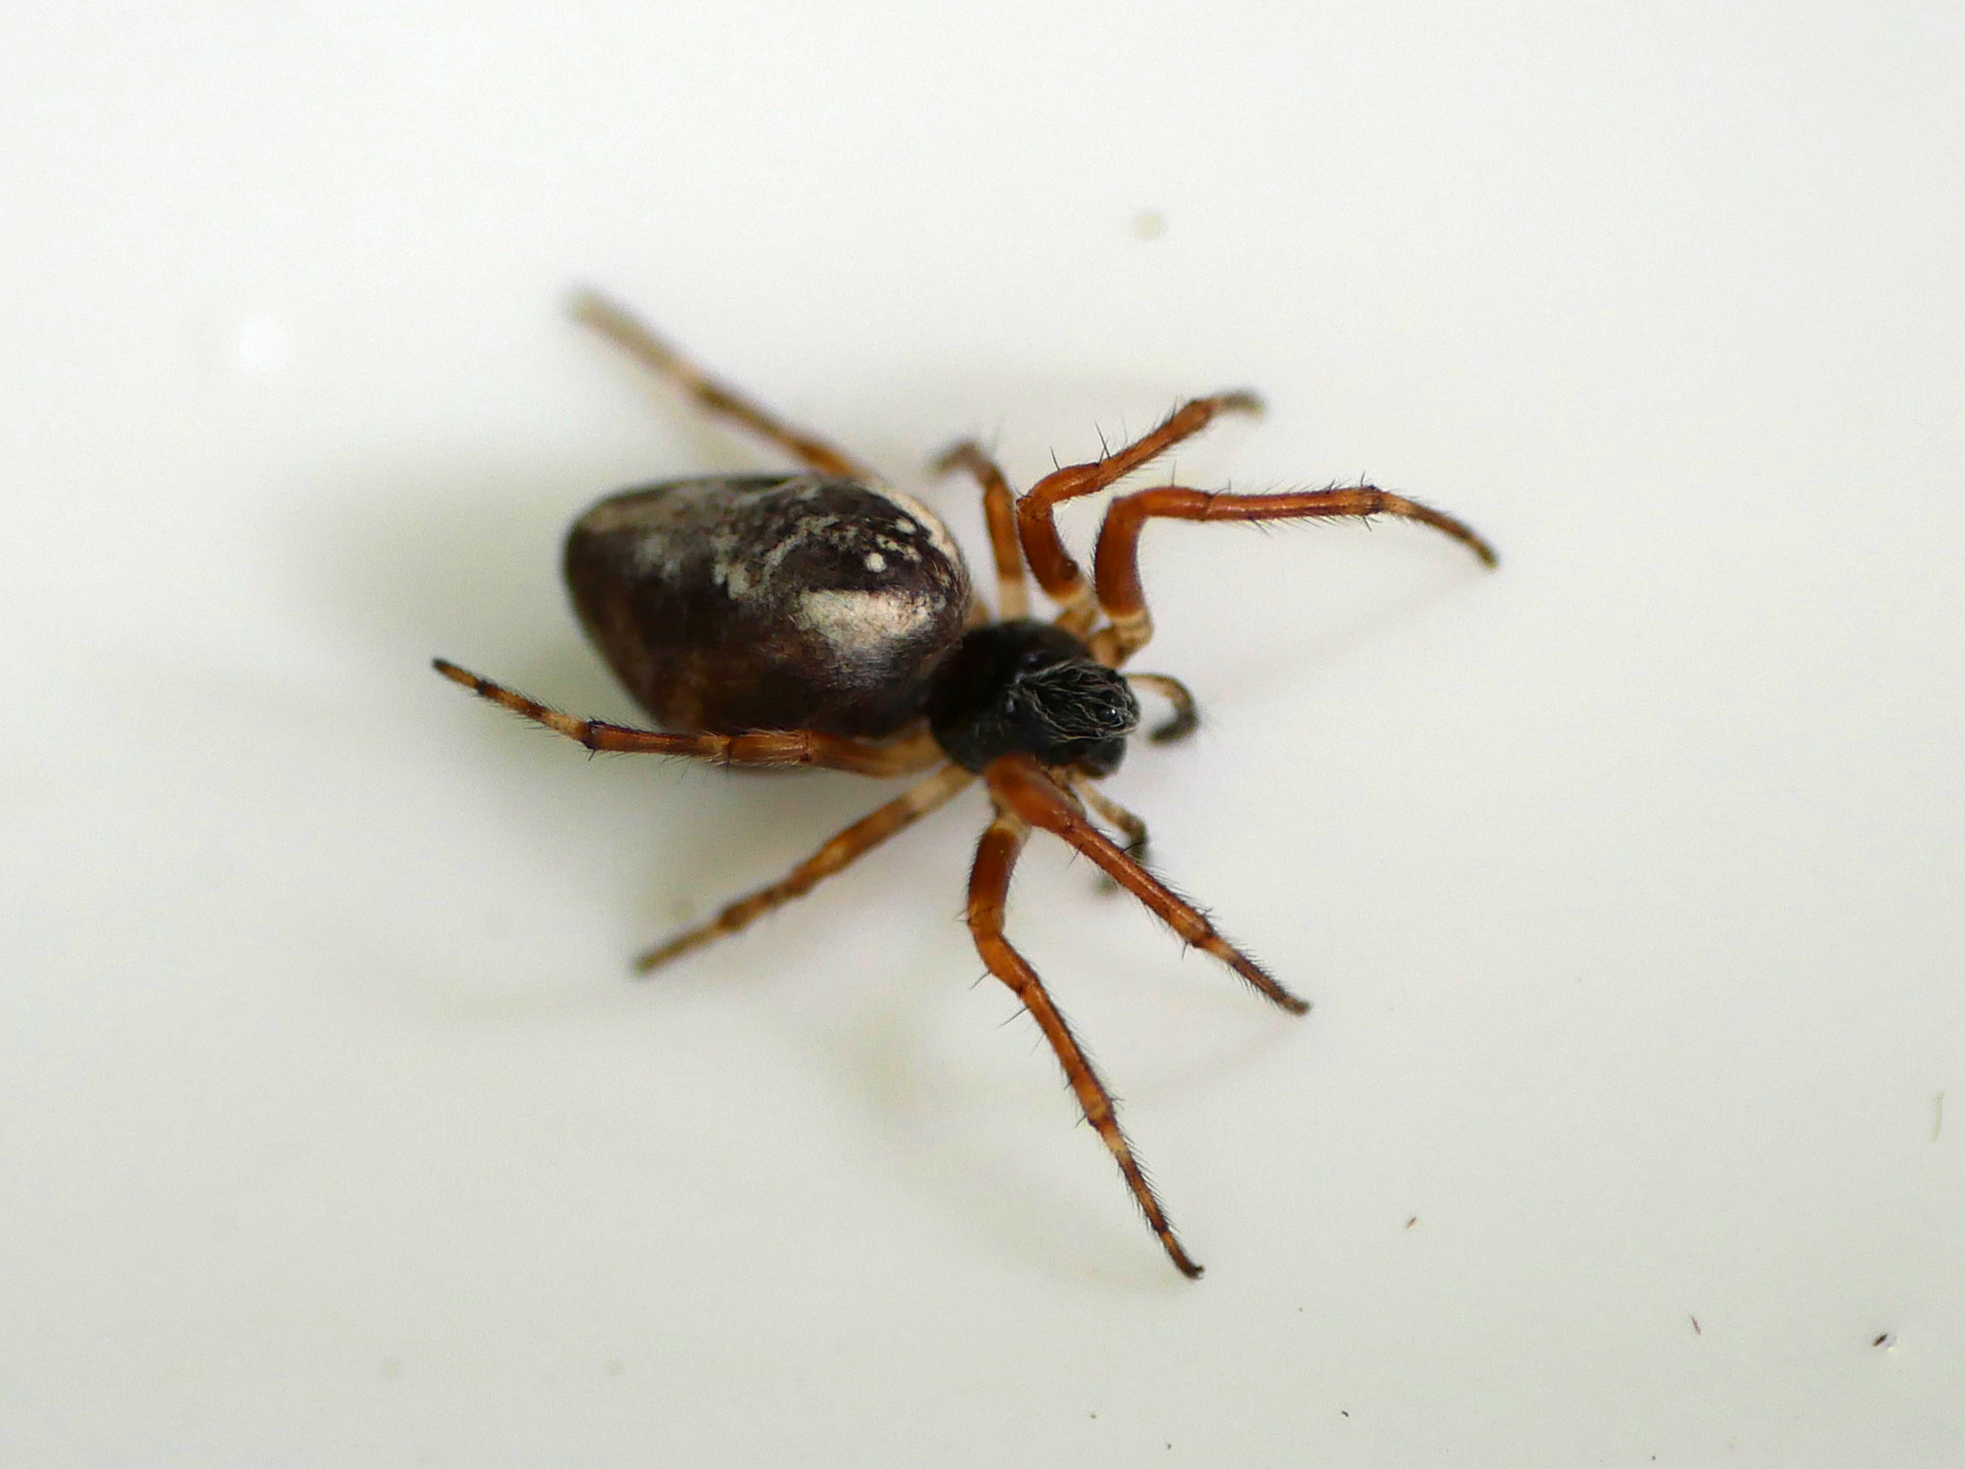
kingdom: Animalia
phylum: Arthropoda
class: Arachnida
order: Araneae
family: Araneidae
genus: Cyclosa
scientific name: Cyclosa conica
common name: Conical trashline orbweaver
